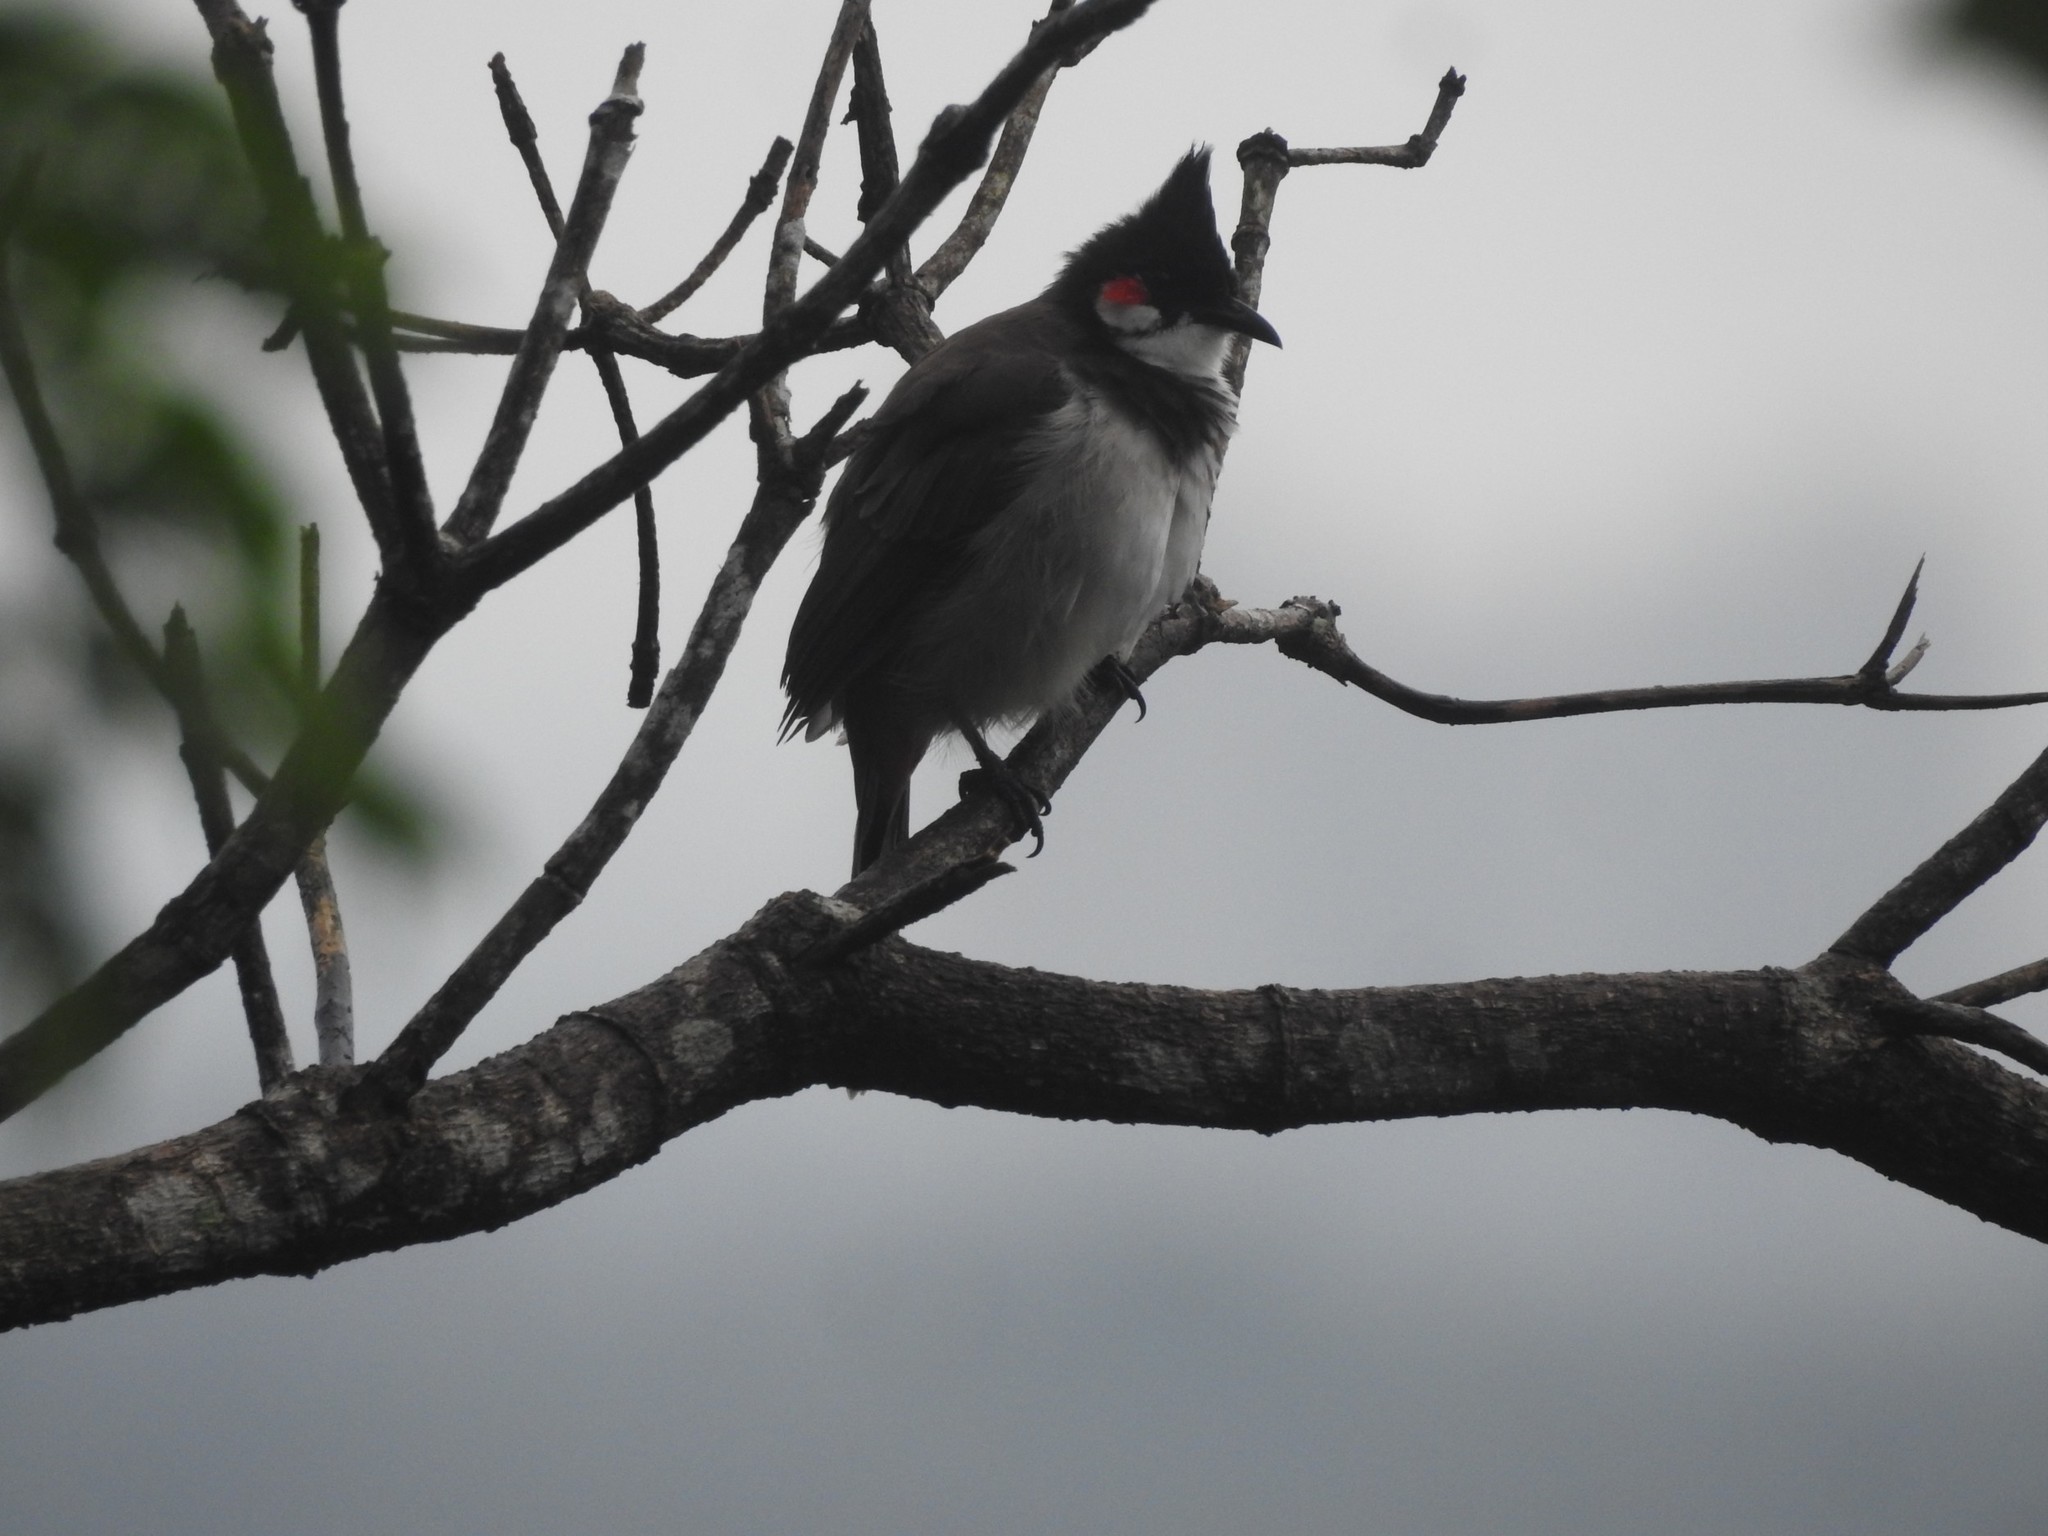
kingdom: Animalia
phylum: Chordata
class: Aves
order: Passeriformes
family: Pycnonotidae
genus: Pycnonotus
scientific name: Pycnonotus jocosus
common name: Red-whiskered bulbul
